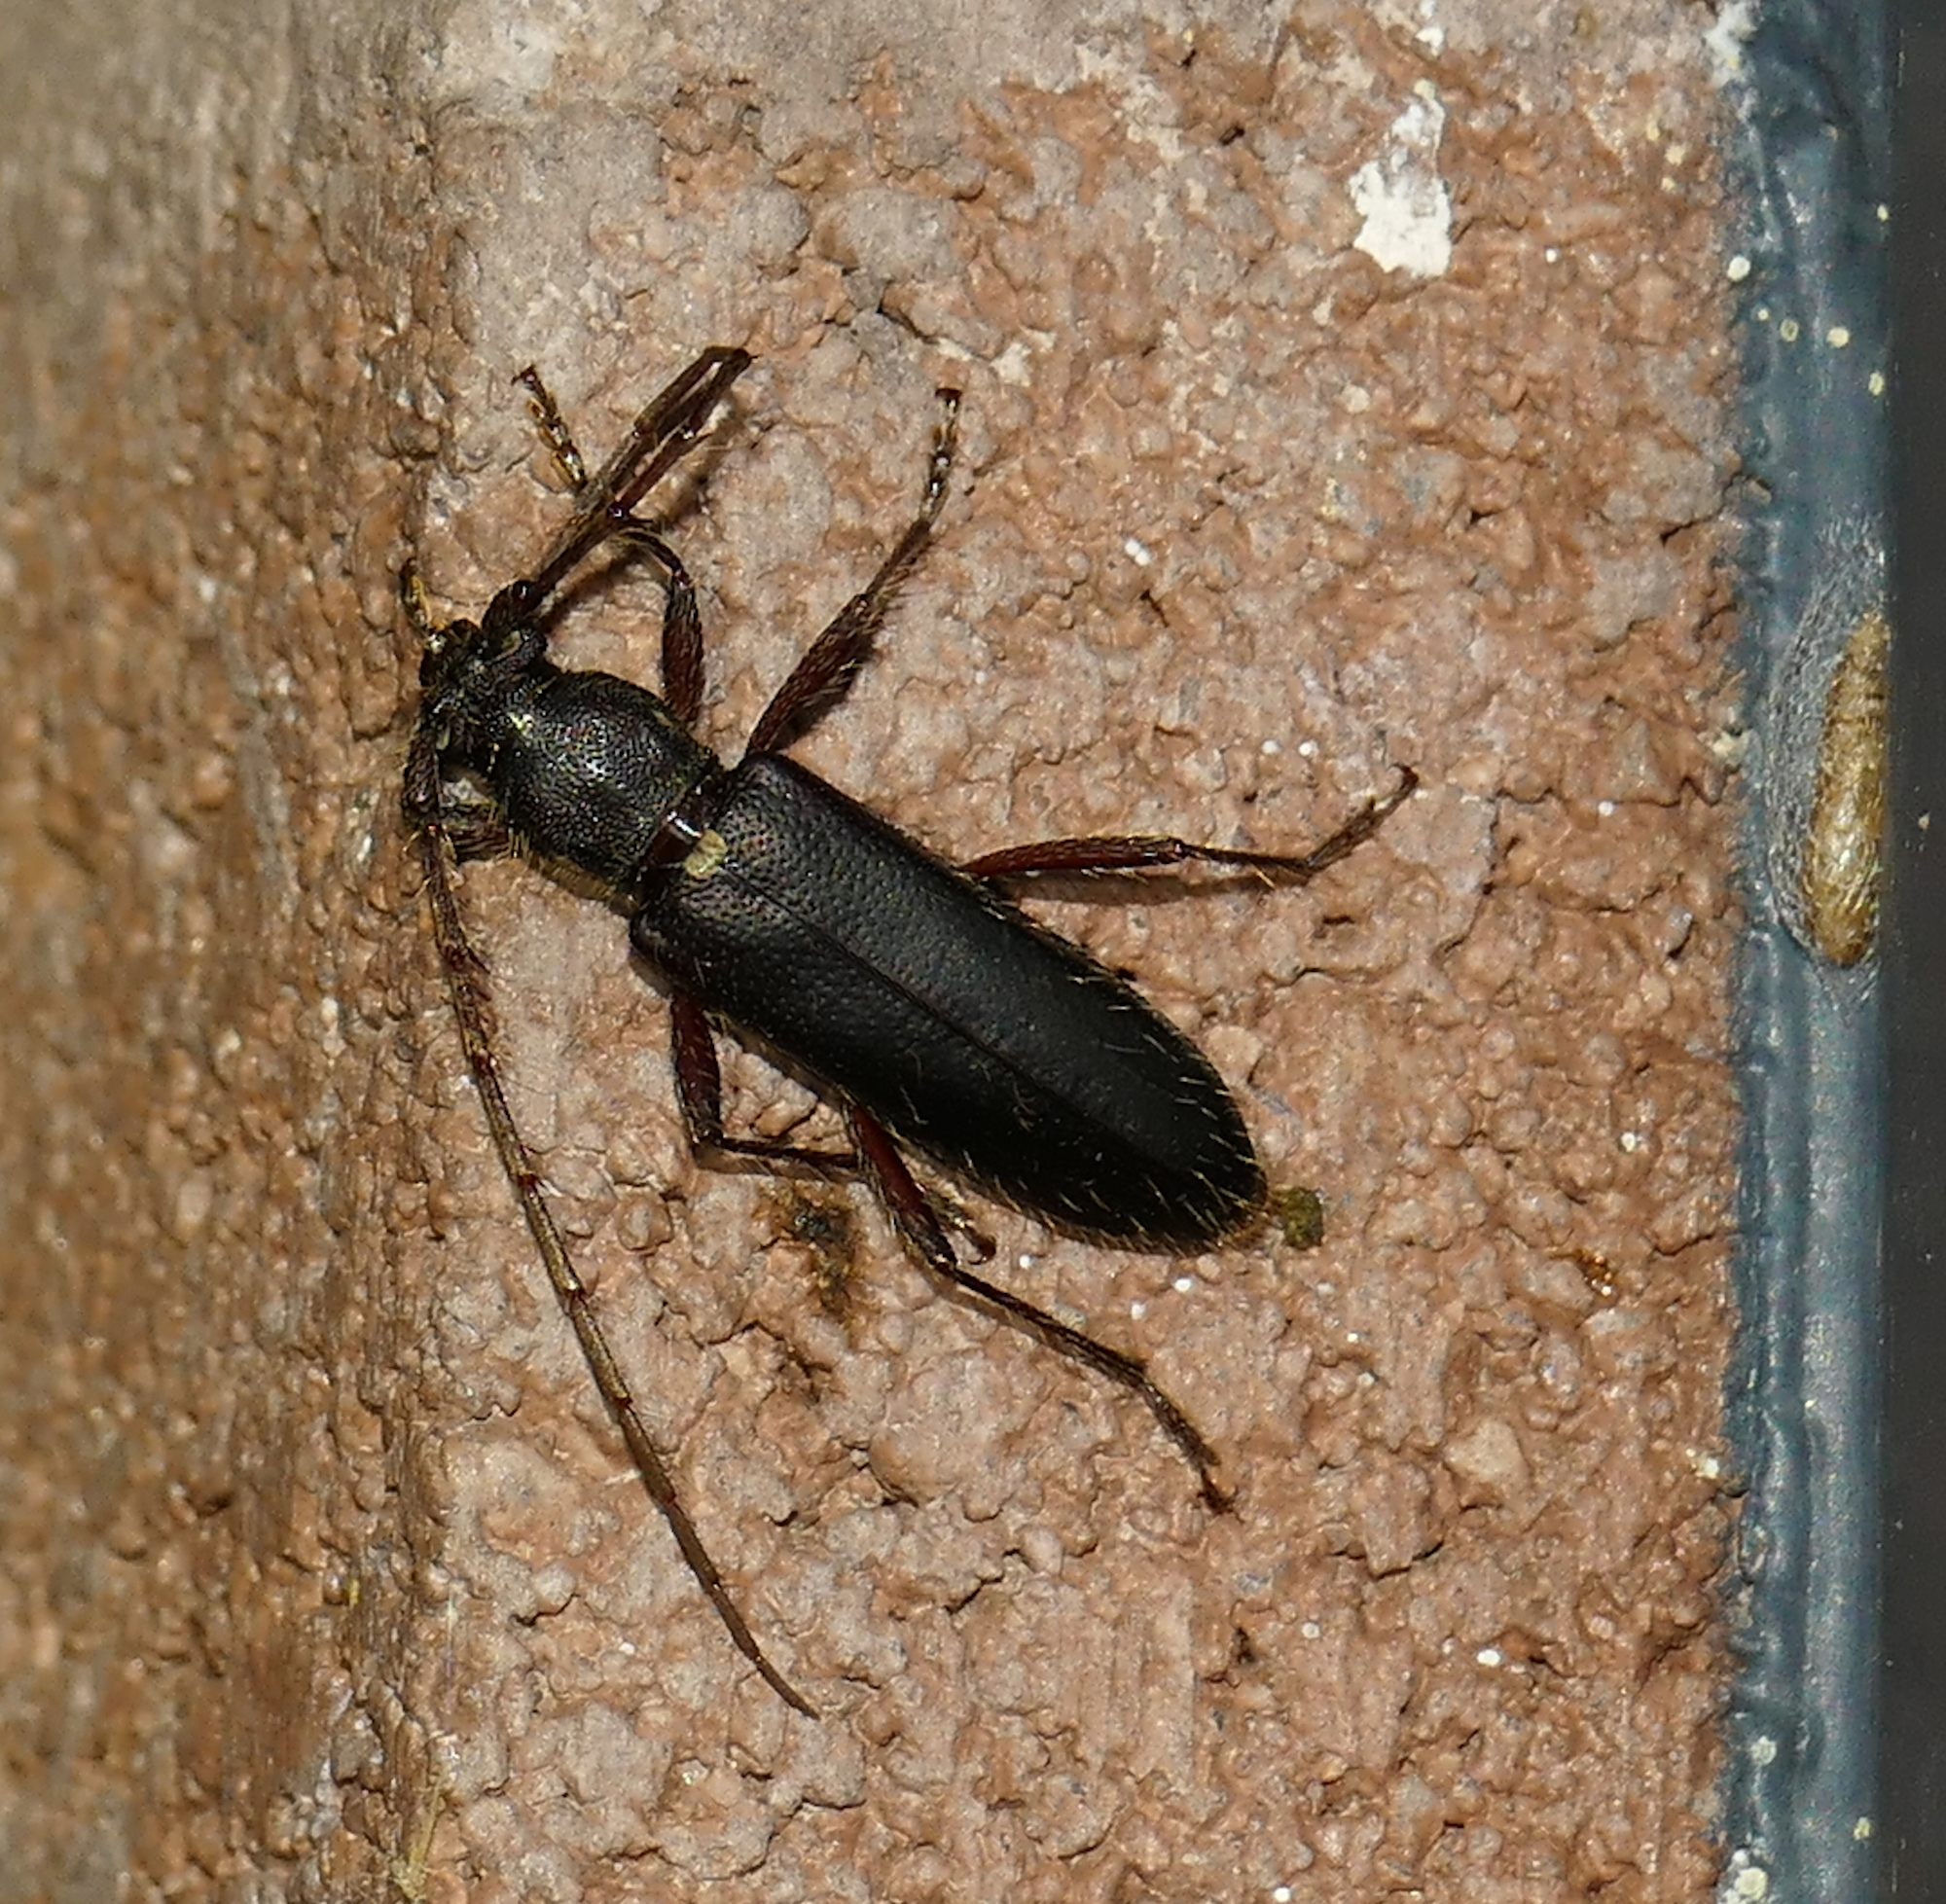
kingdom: Animalia
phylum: Arthropoda
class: Insecta
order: Coleoptera
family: Cerambycidae
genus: Stenelaphus
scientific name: Stenelaphus alienus
